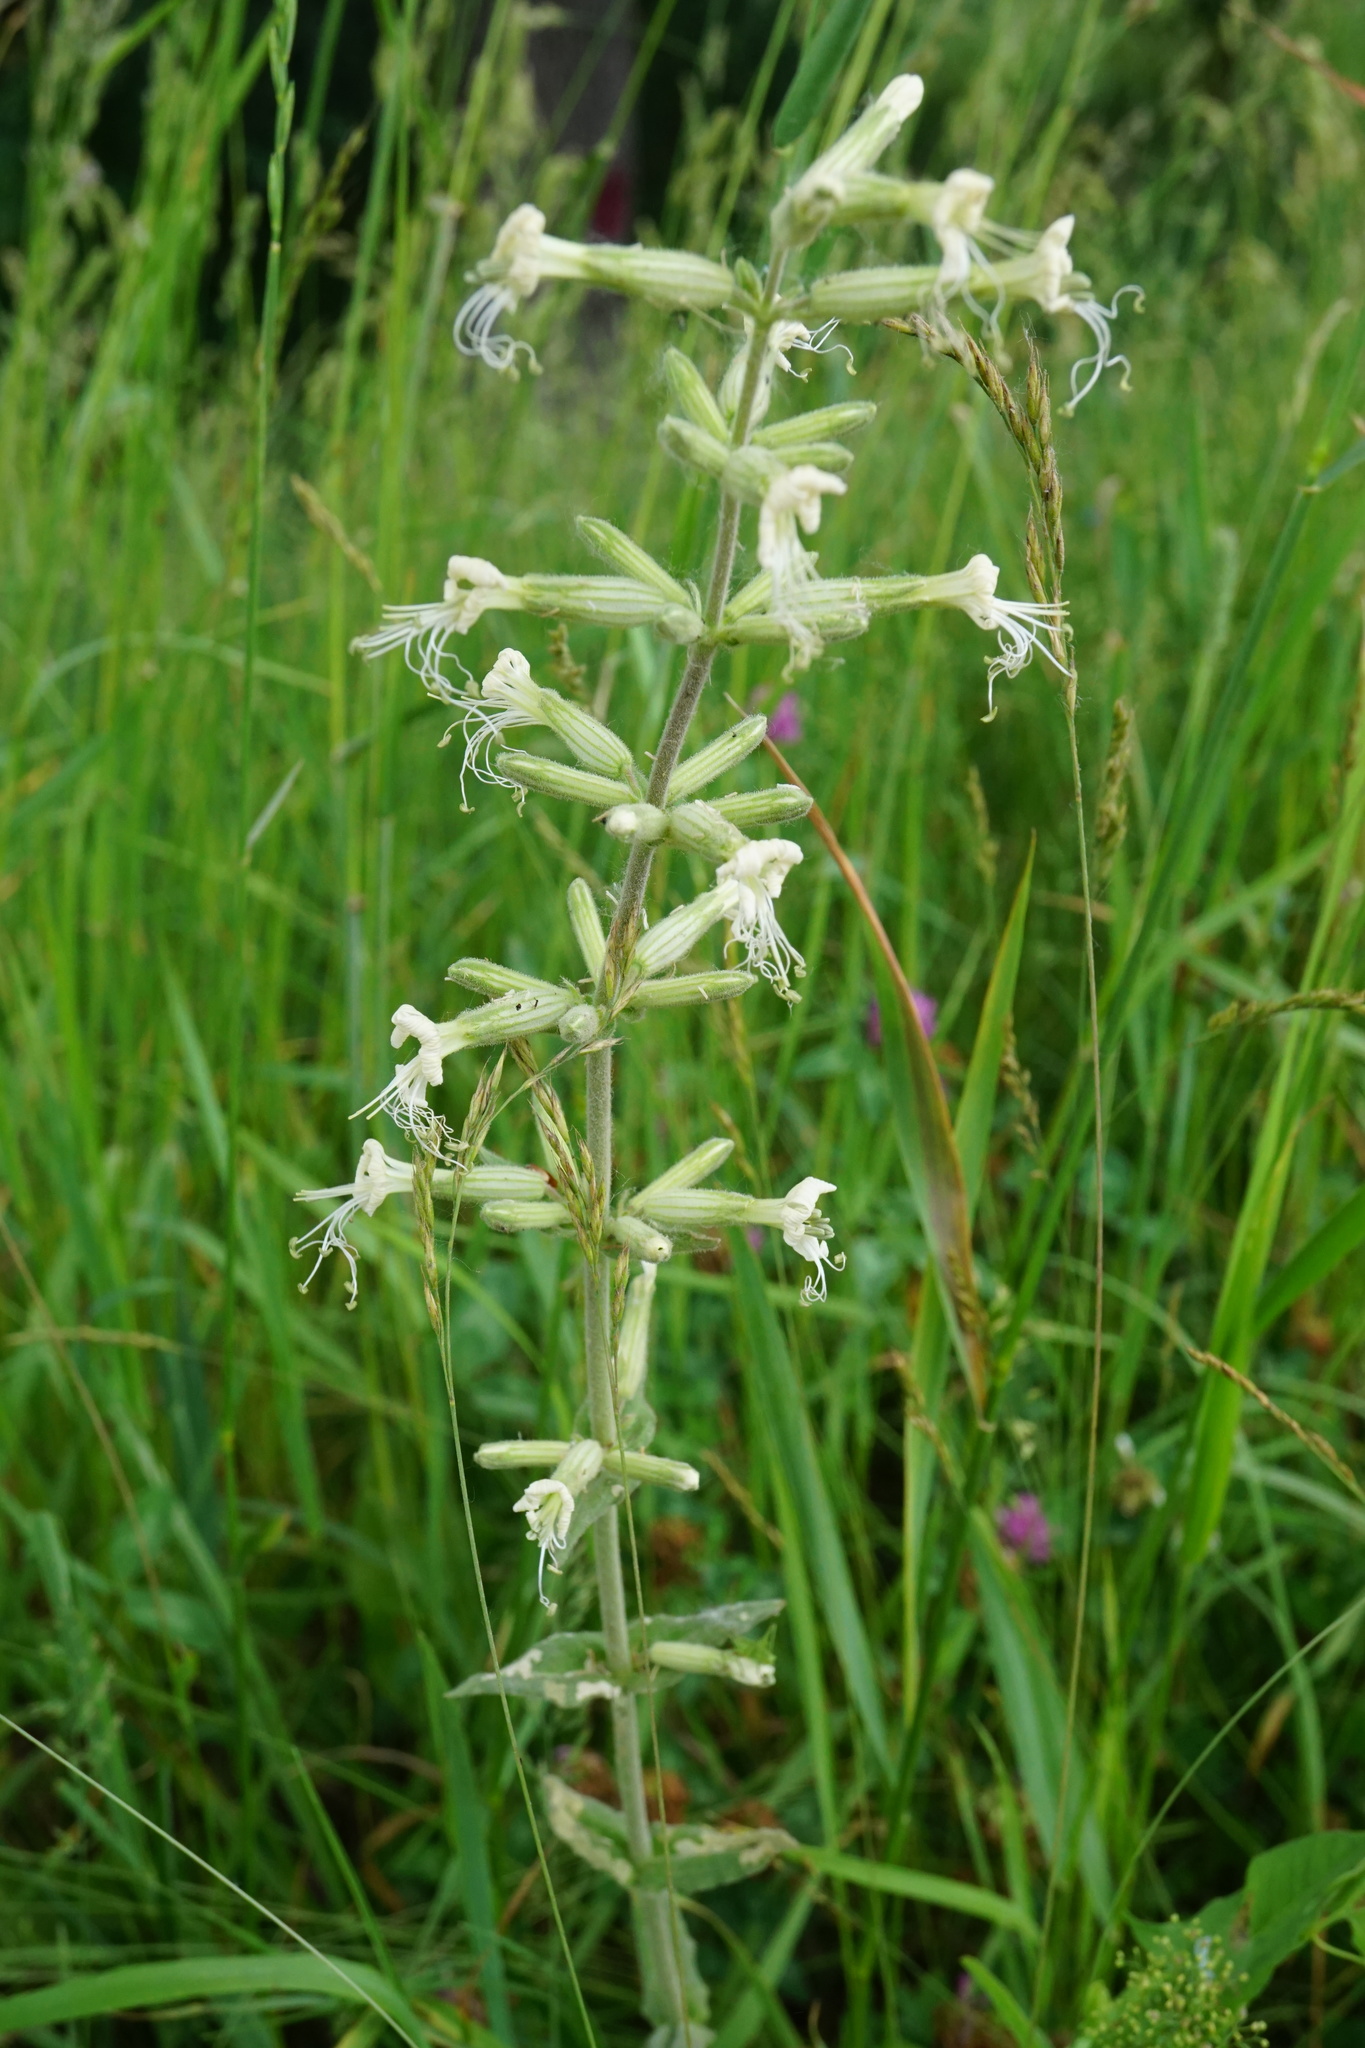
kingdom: Plantae
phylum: Tracheophyta
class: Magnoliopsida
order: Caryophyllales
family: Caryophyllaceae
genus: Silene
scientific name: Silene viscosa
